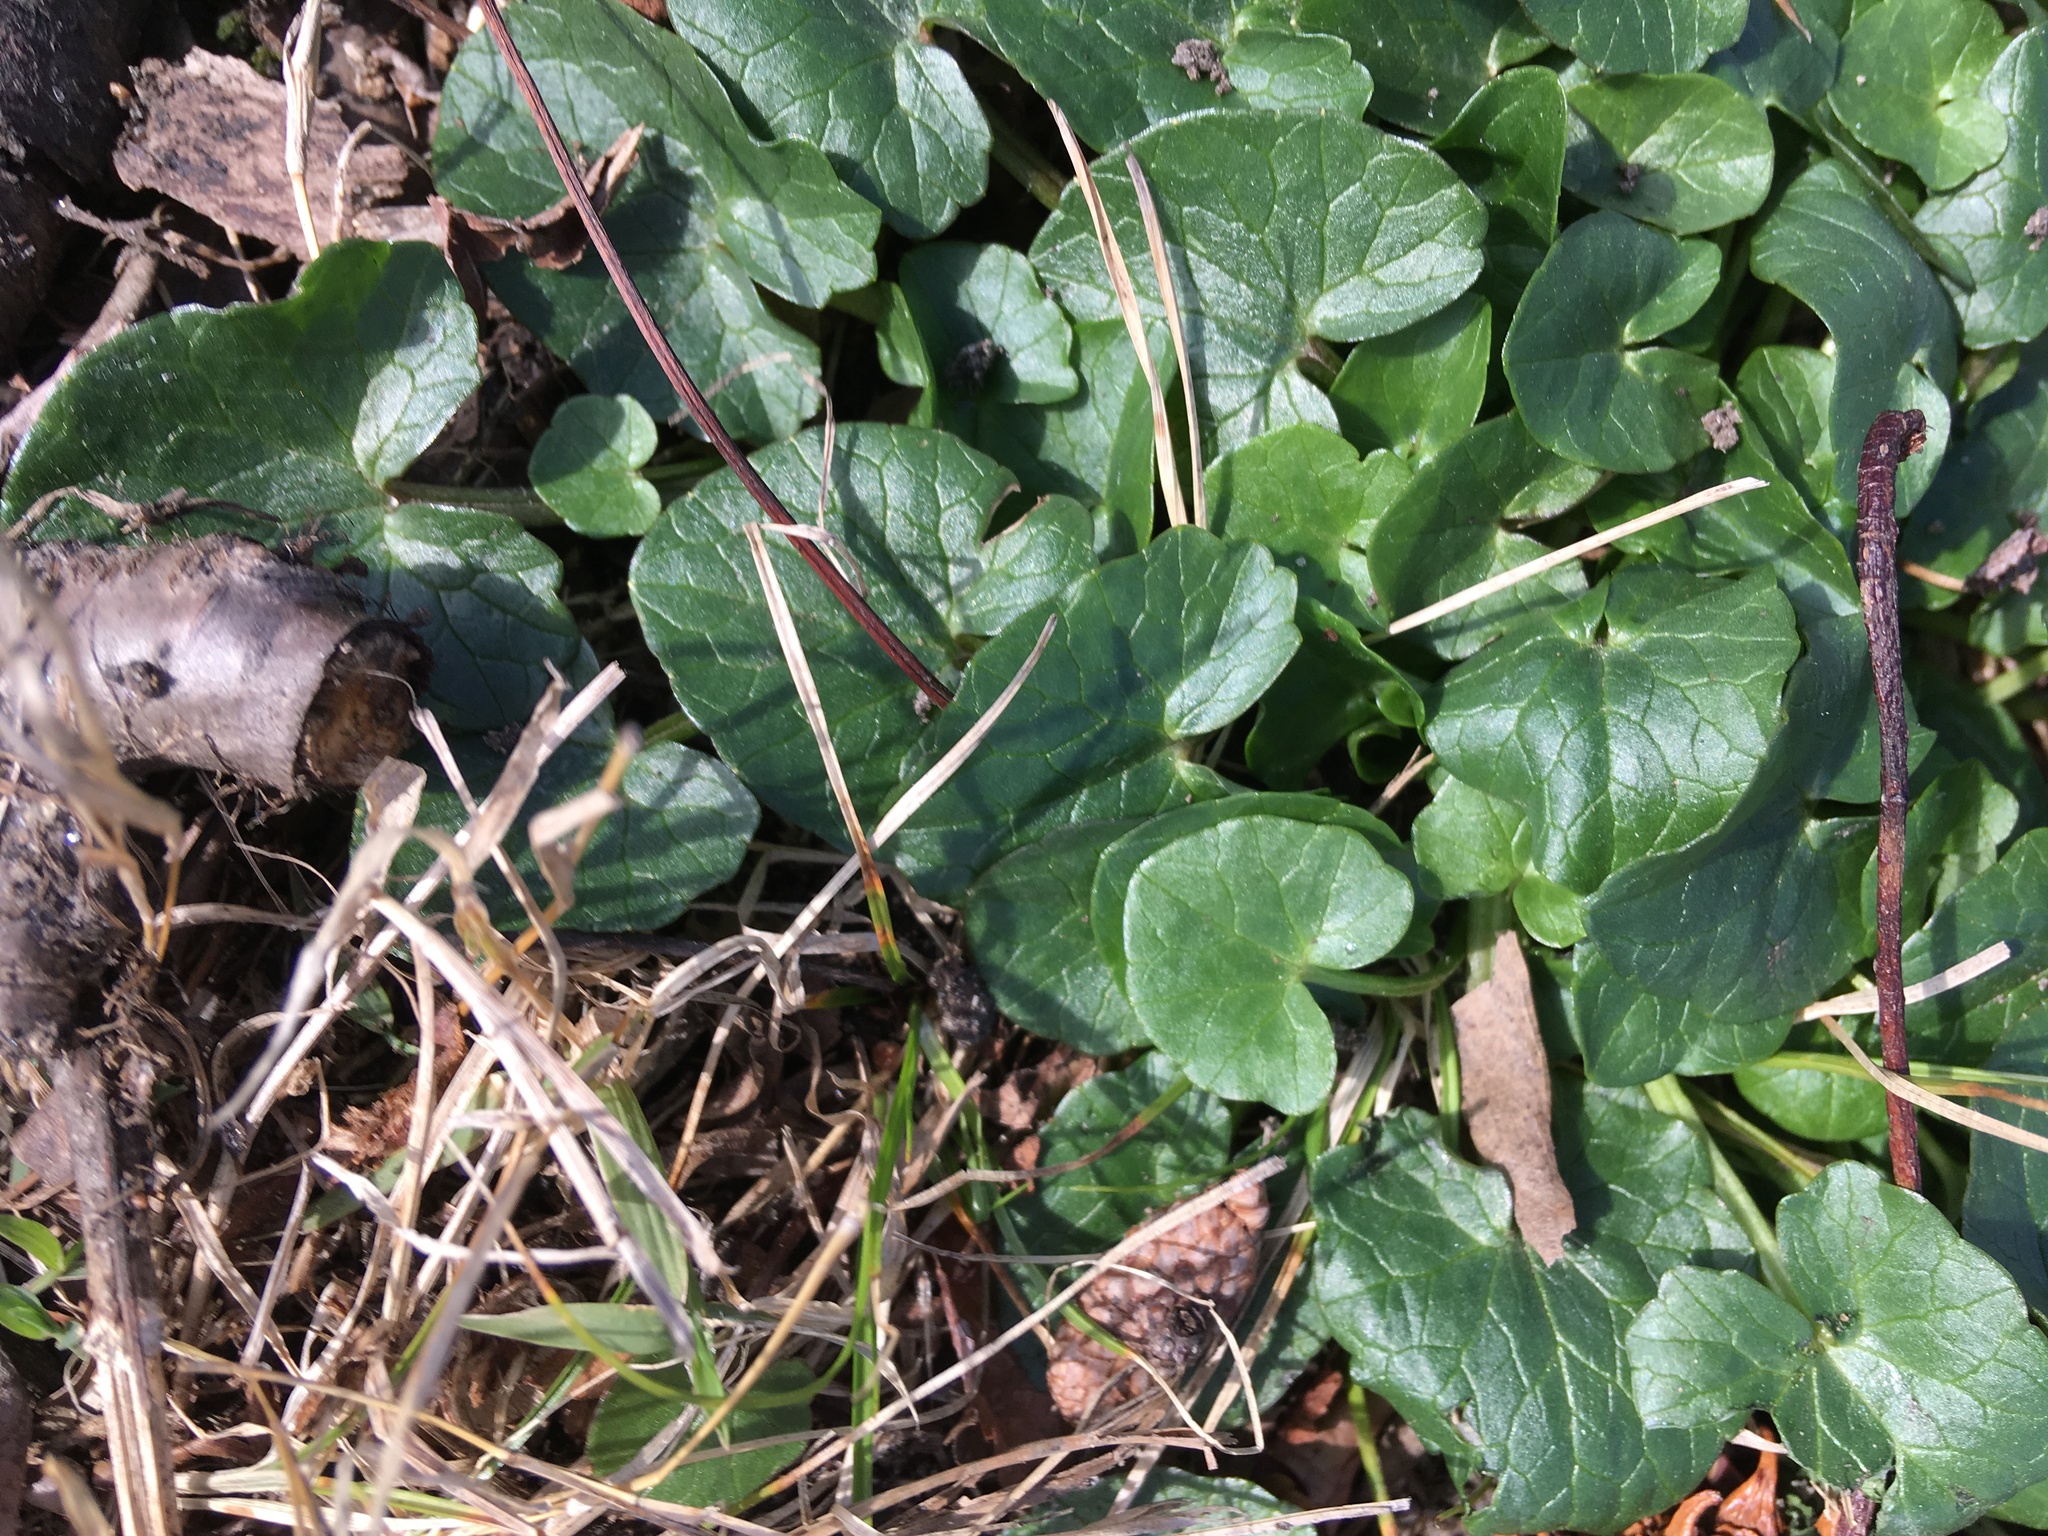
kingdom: Plantae
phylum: Tracheophyta
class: Magnoliopsida
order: Ranunculales
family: Ranunculaceae
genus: Ficaria
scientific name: Ficaria verna
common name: Lesser celandine
